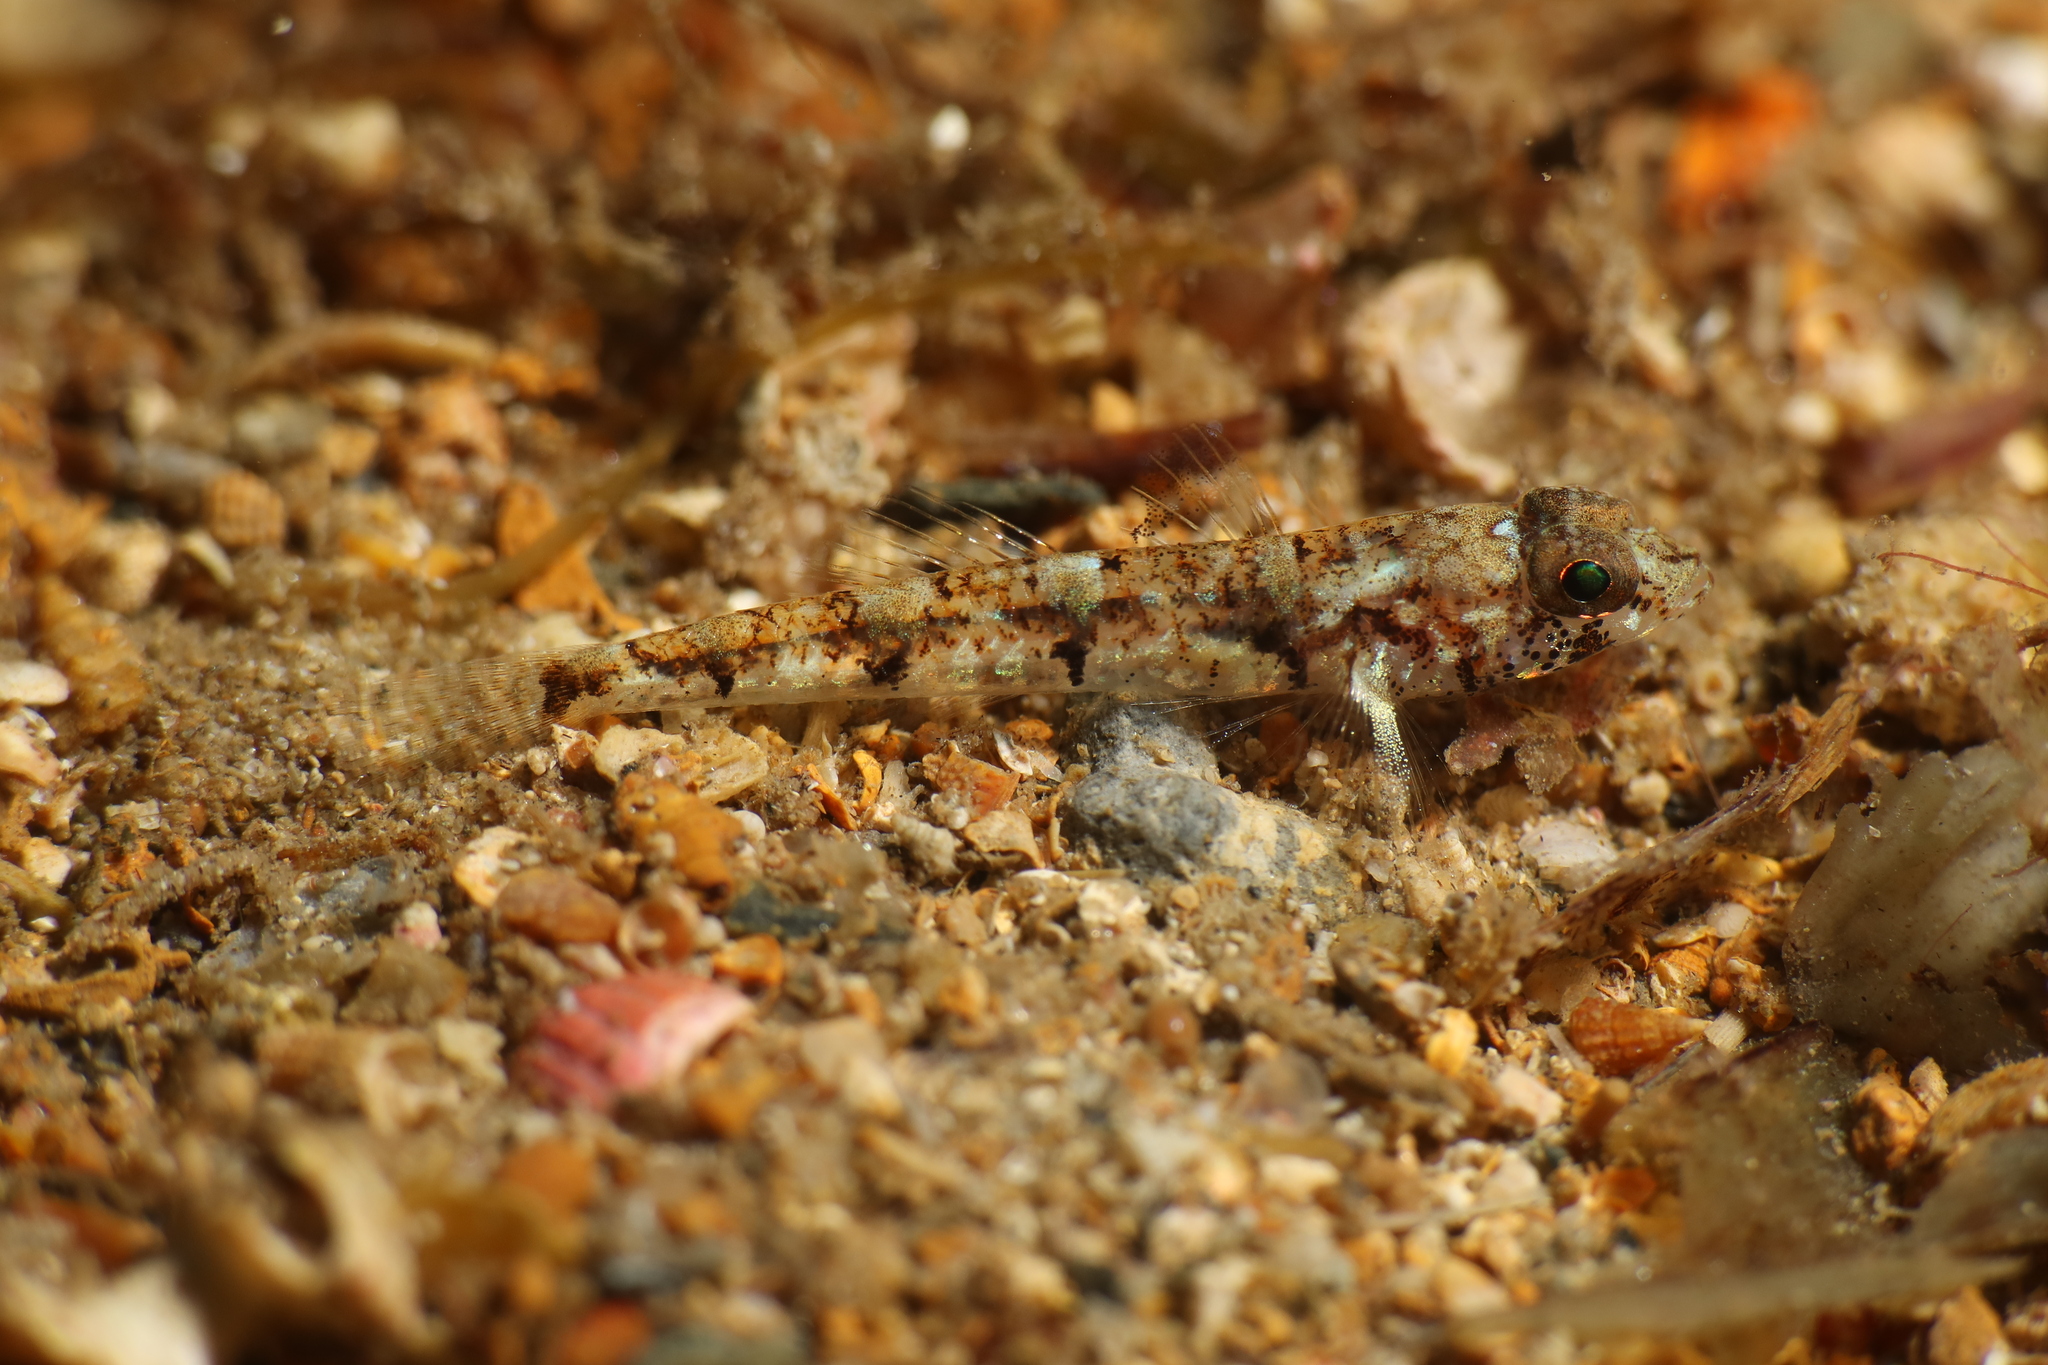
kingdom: Animalia
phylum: Chordata
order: Perciformes
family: Gobiidae
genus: Buenia
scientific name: Buenia affinis
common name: De buen's goby
